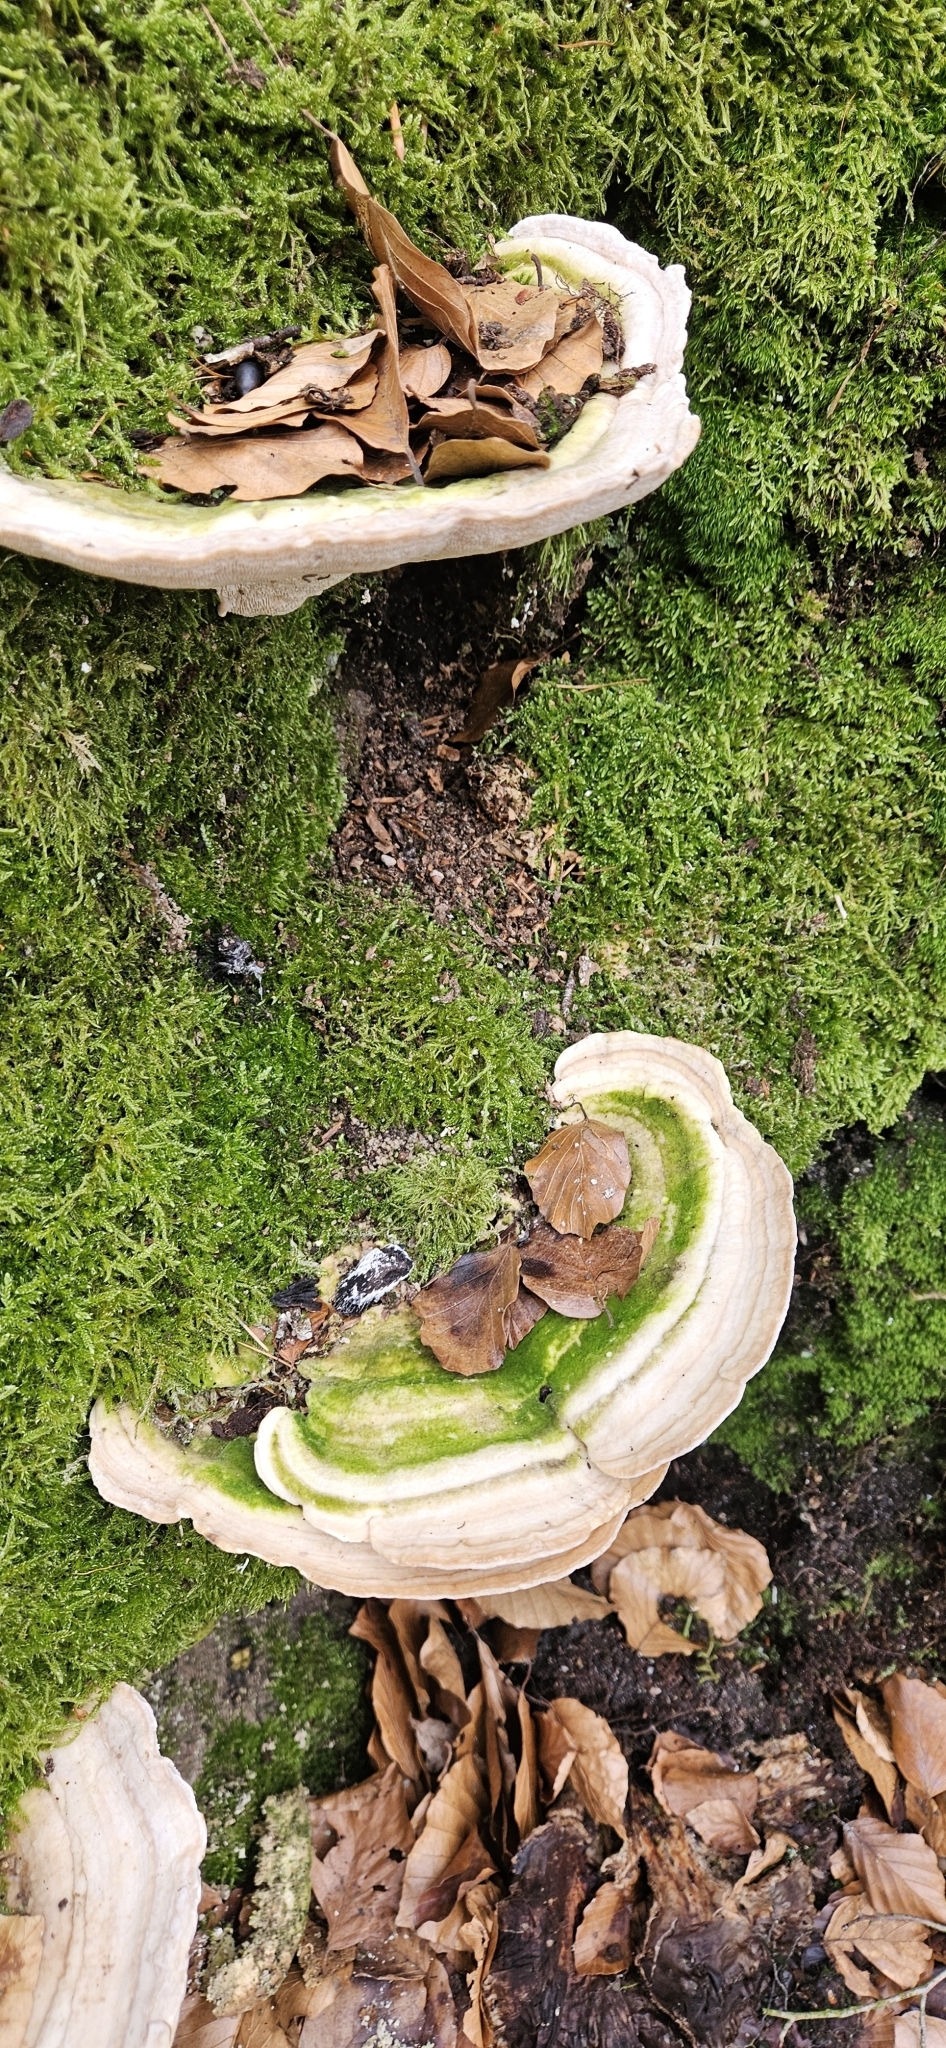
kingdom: Fungi
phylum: Basidiomycota
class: Agaricomycetes
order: Polyporales
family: Polyporaceae
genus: Trametes
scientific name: Trametes gibbosa
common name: Lumpy bracket
